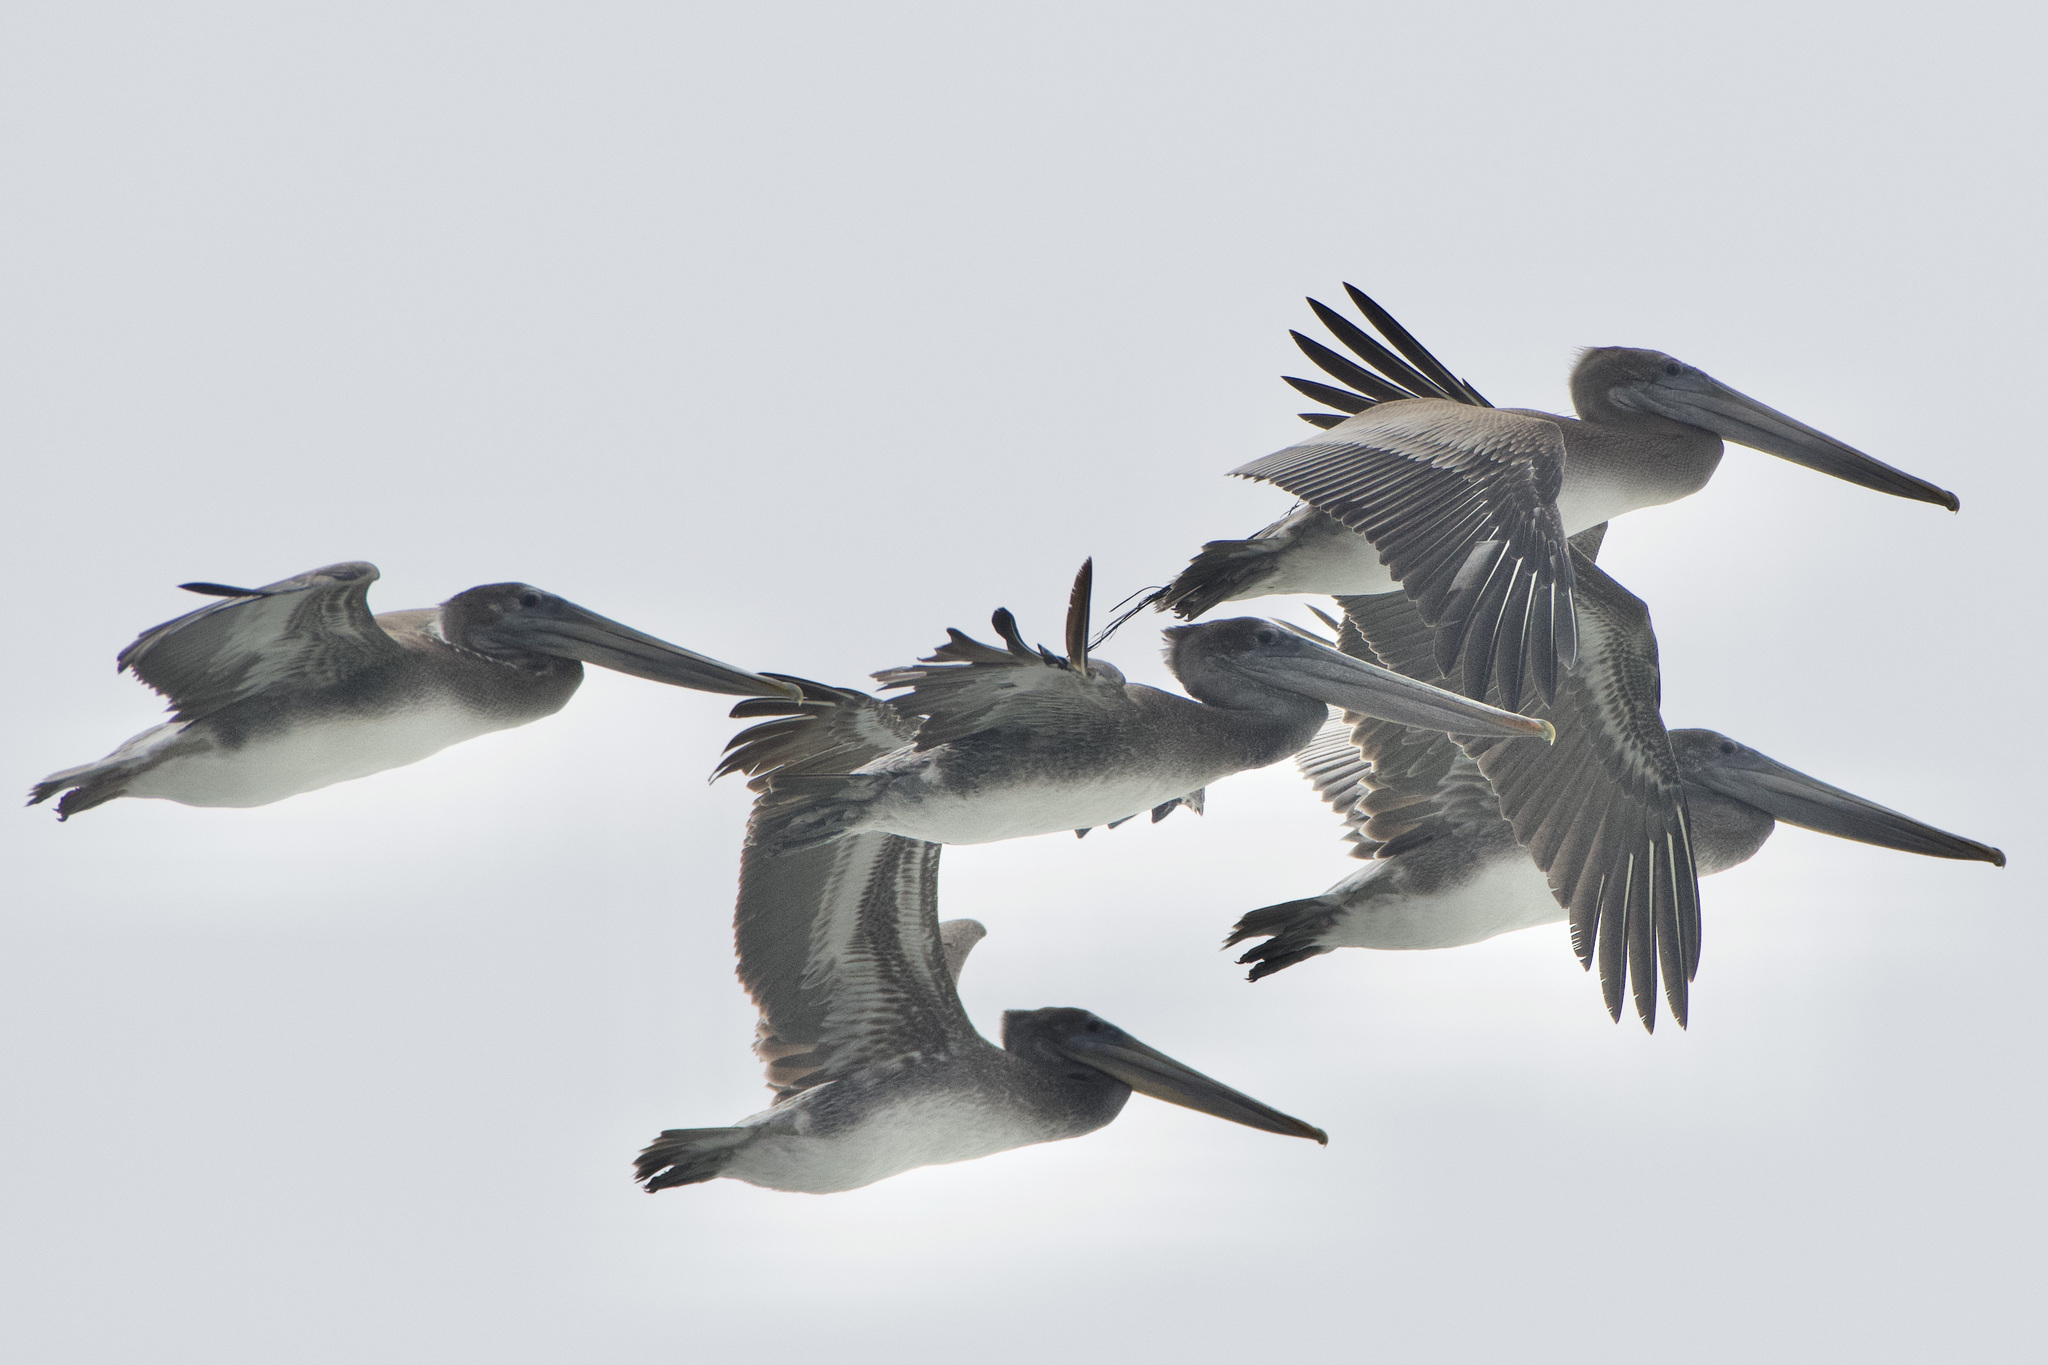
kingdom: Animalia
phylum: Chordata
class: Aves
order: Pelecaniformes
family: Pelecanidae
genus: Pelecanus
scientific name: Pelecanus occidentalis
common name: Brown pelican
